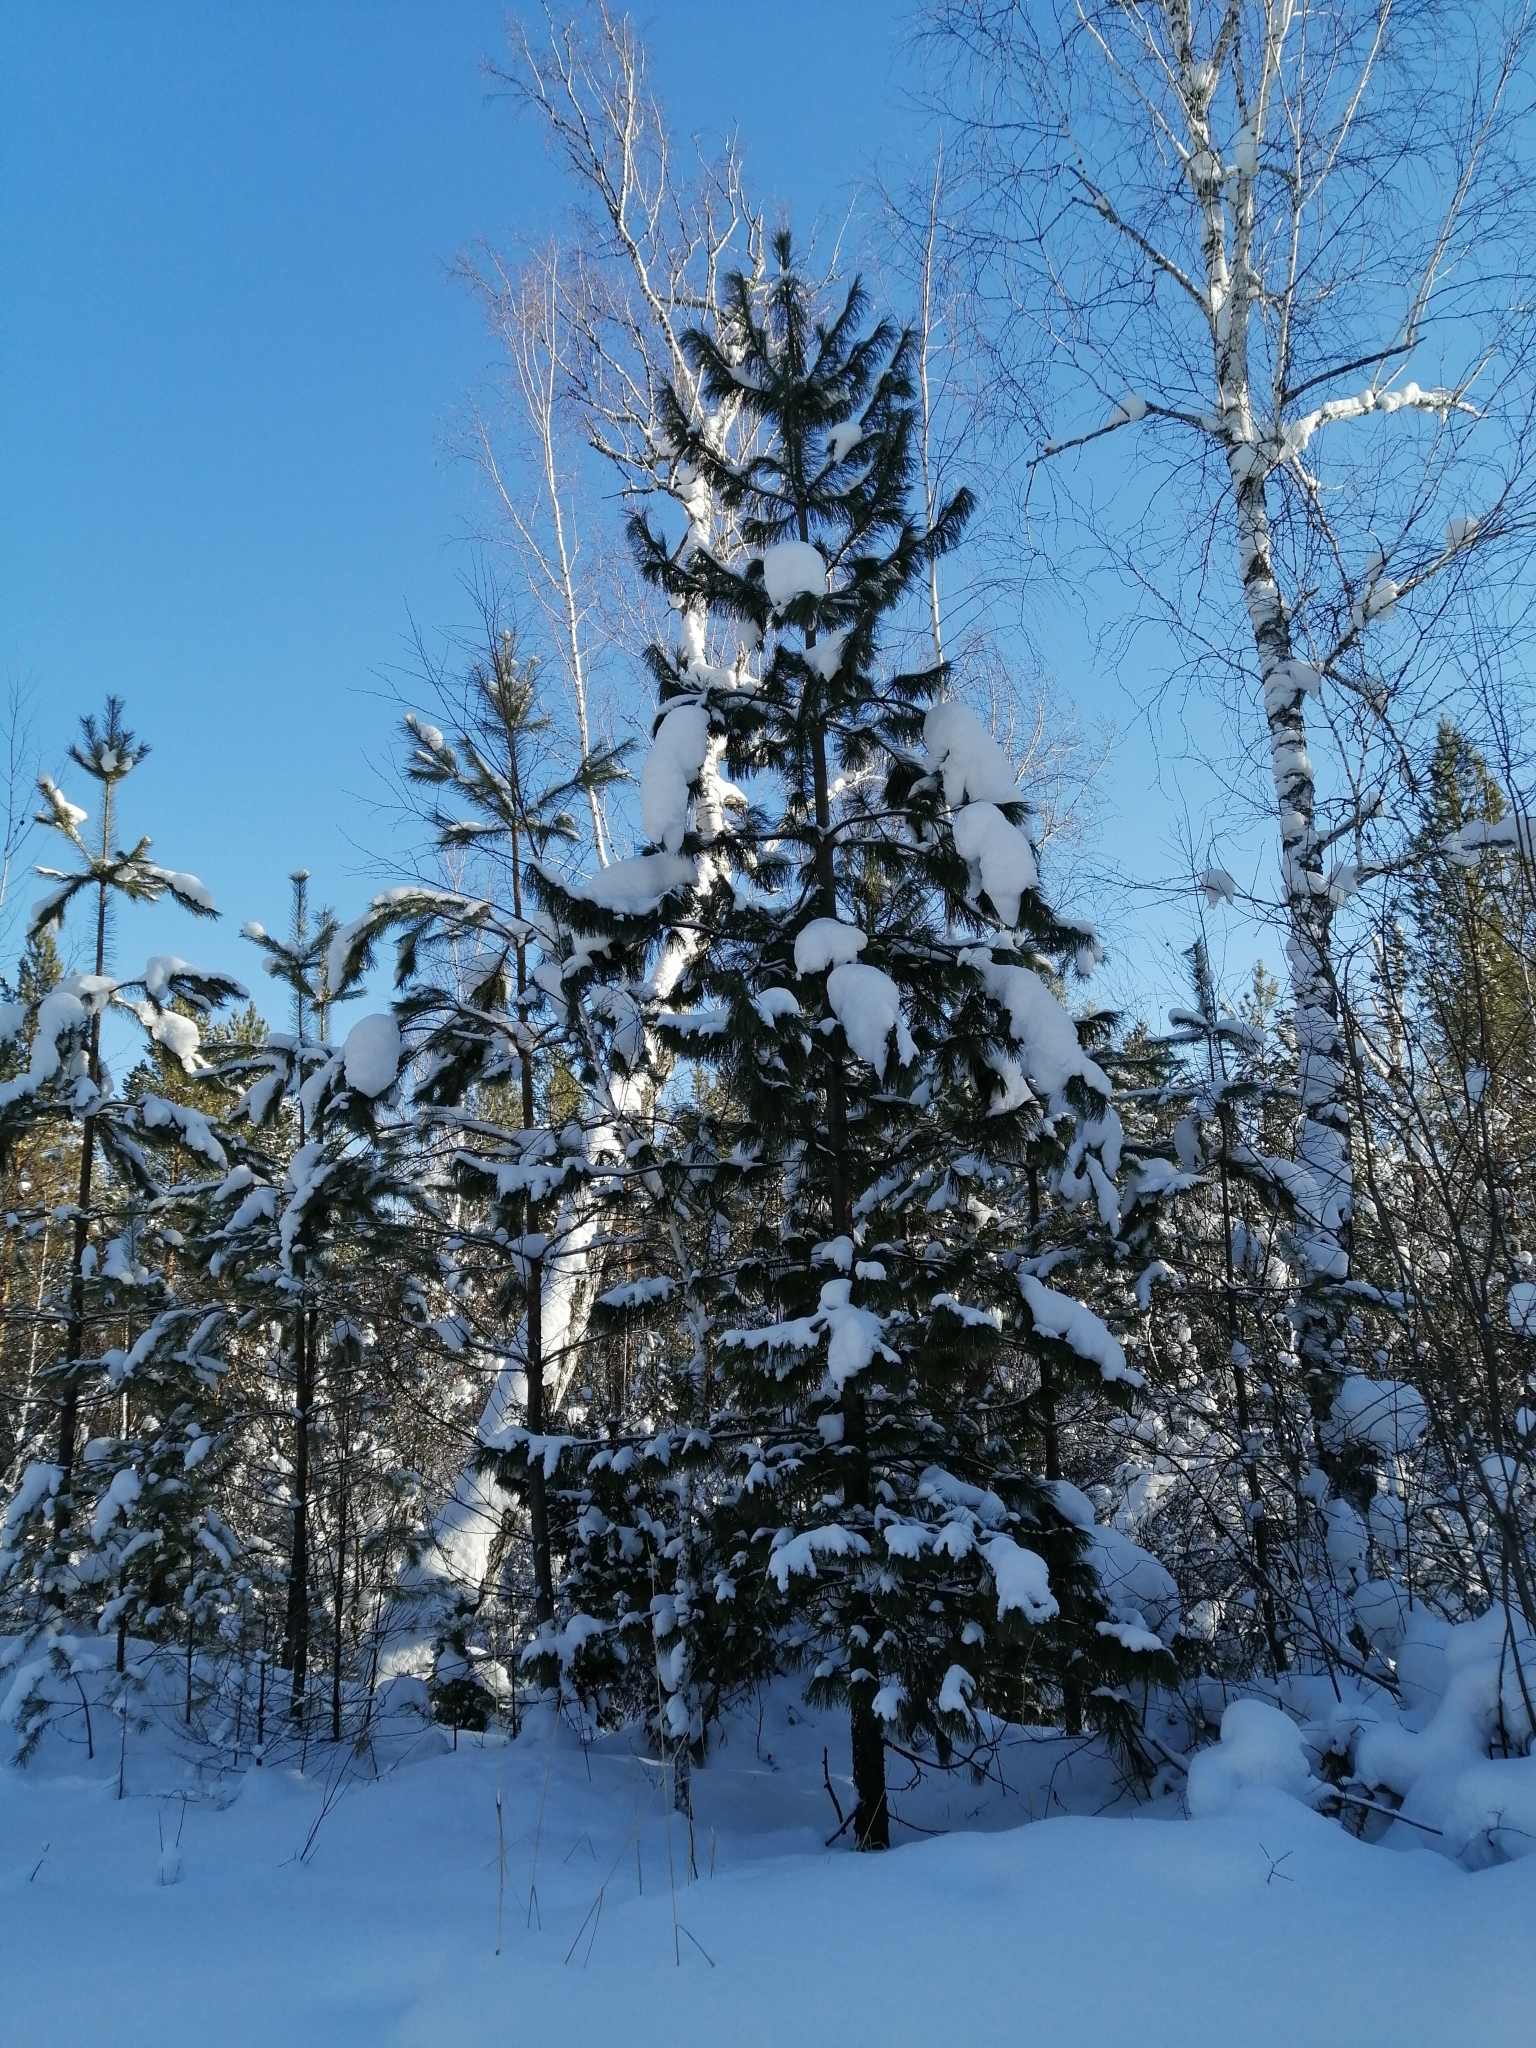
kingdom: Plantae
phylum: Tracheophyta
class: Pinopsida
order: Pinales
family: Pinaceae
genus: Pinus
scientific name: Pinus sibirica
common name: Siberian pine
